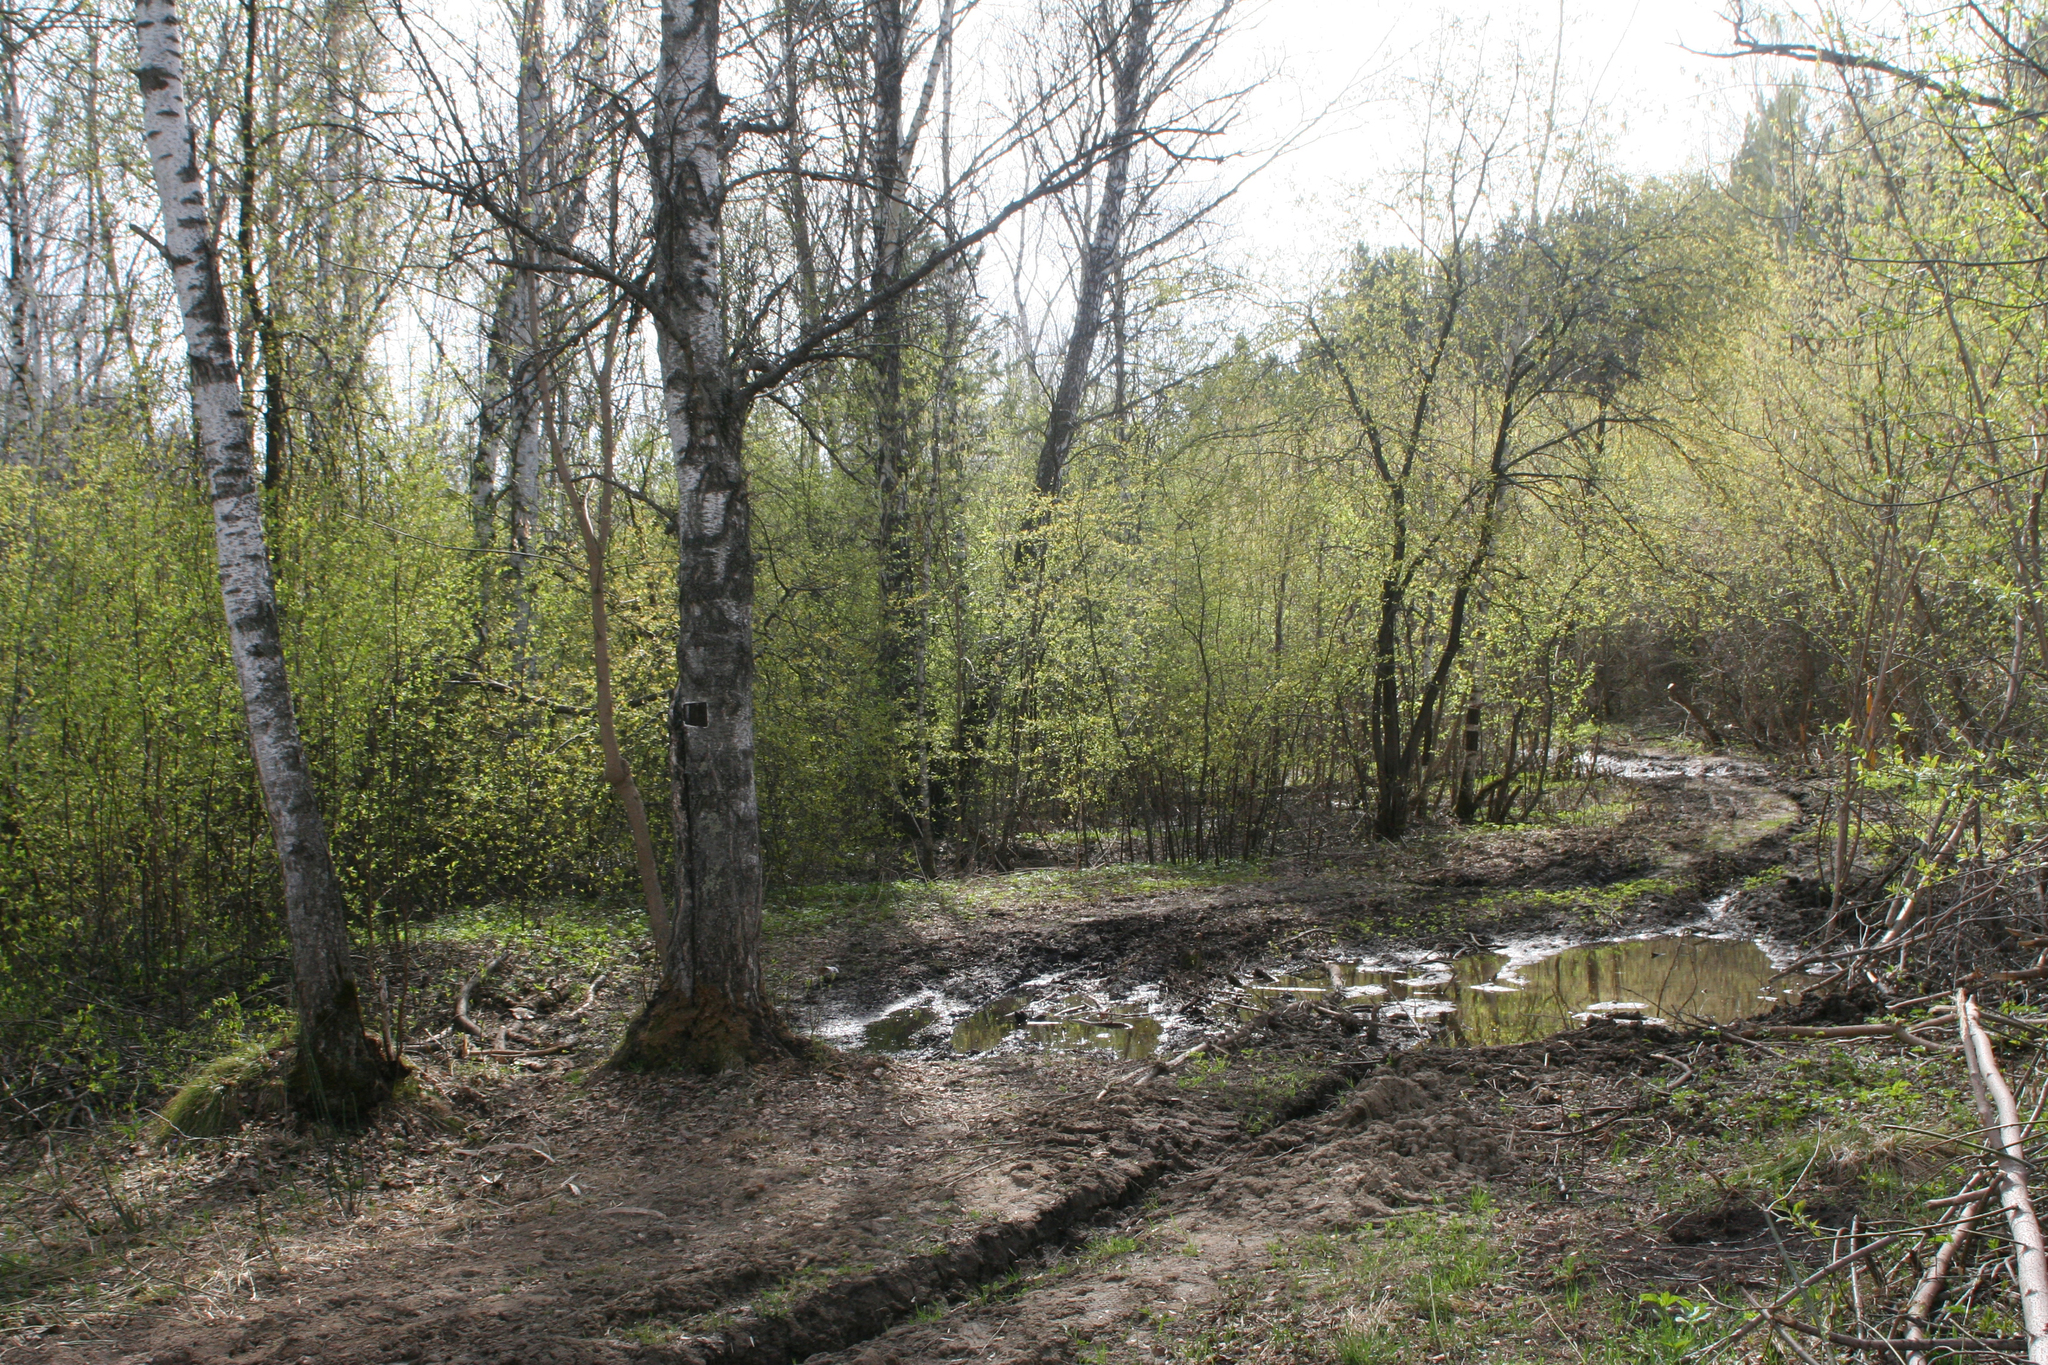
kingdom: Plantae
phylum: Tracheophyta
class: Magnoliopsida
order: Rosales
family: Rosaceae
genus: Prunus
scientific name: Prunus padus
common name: Bird cherry
